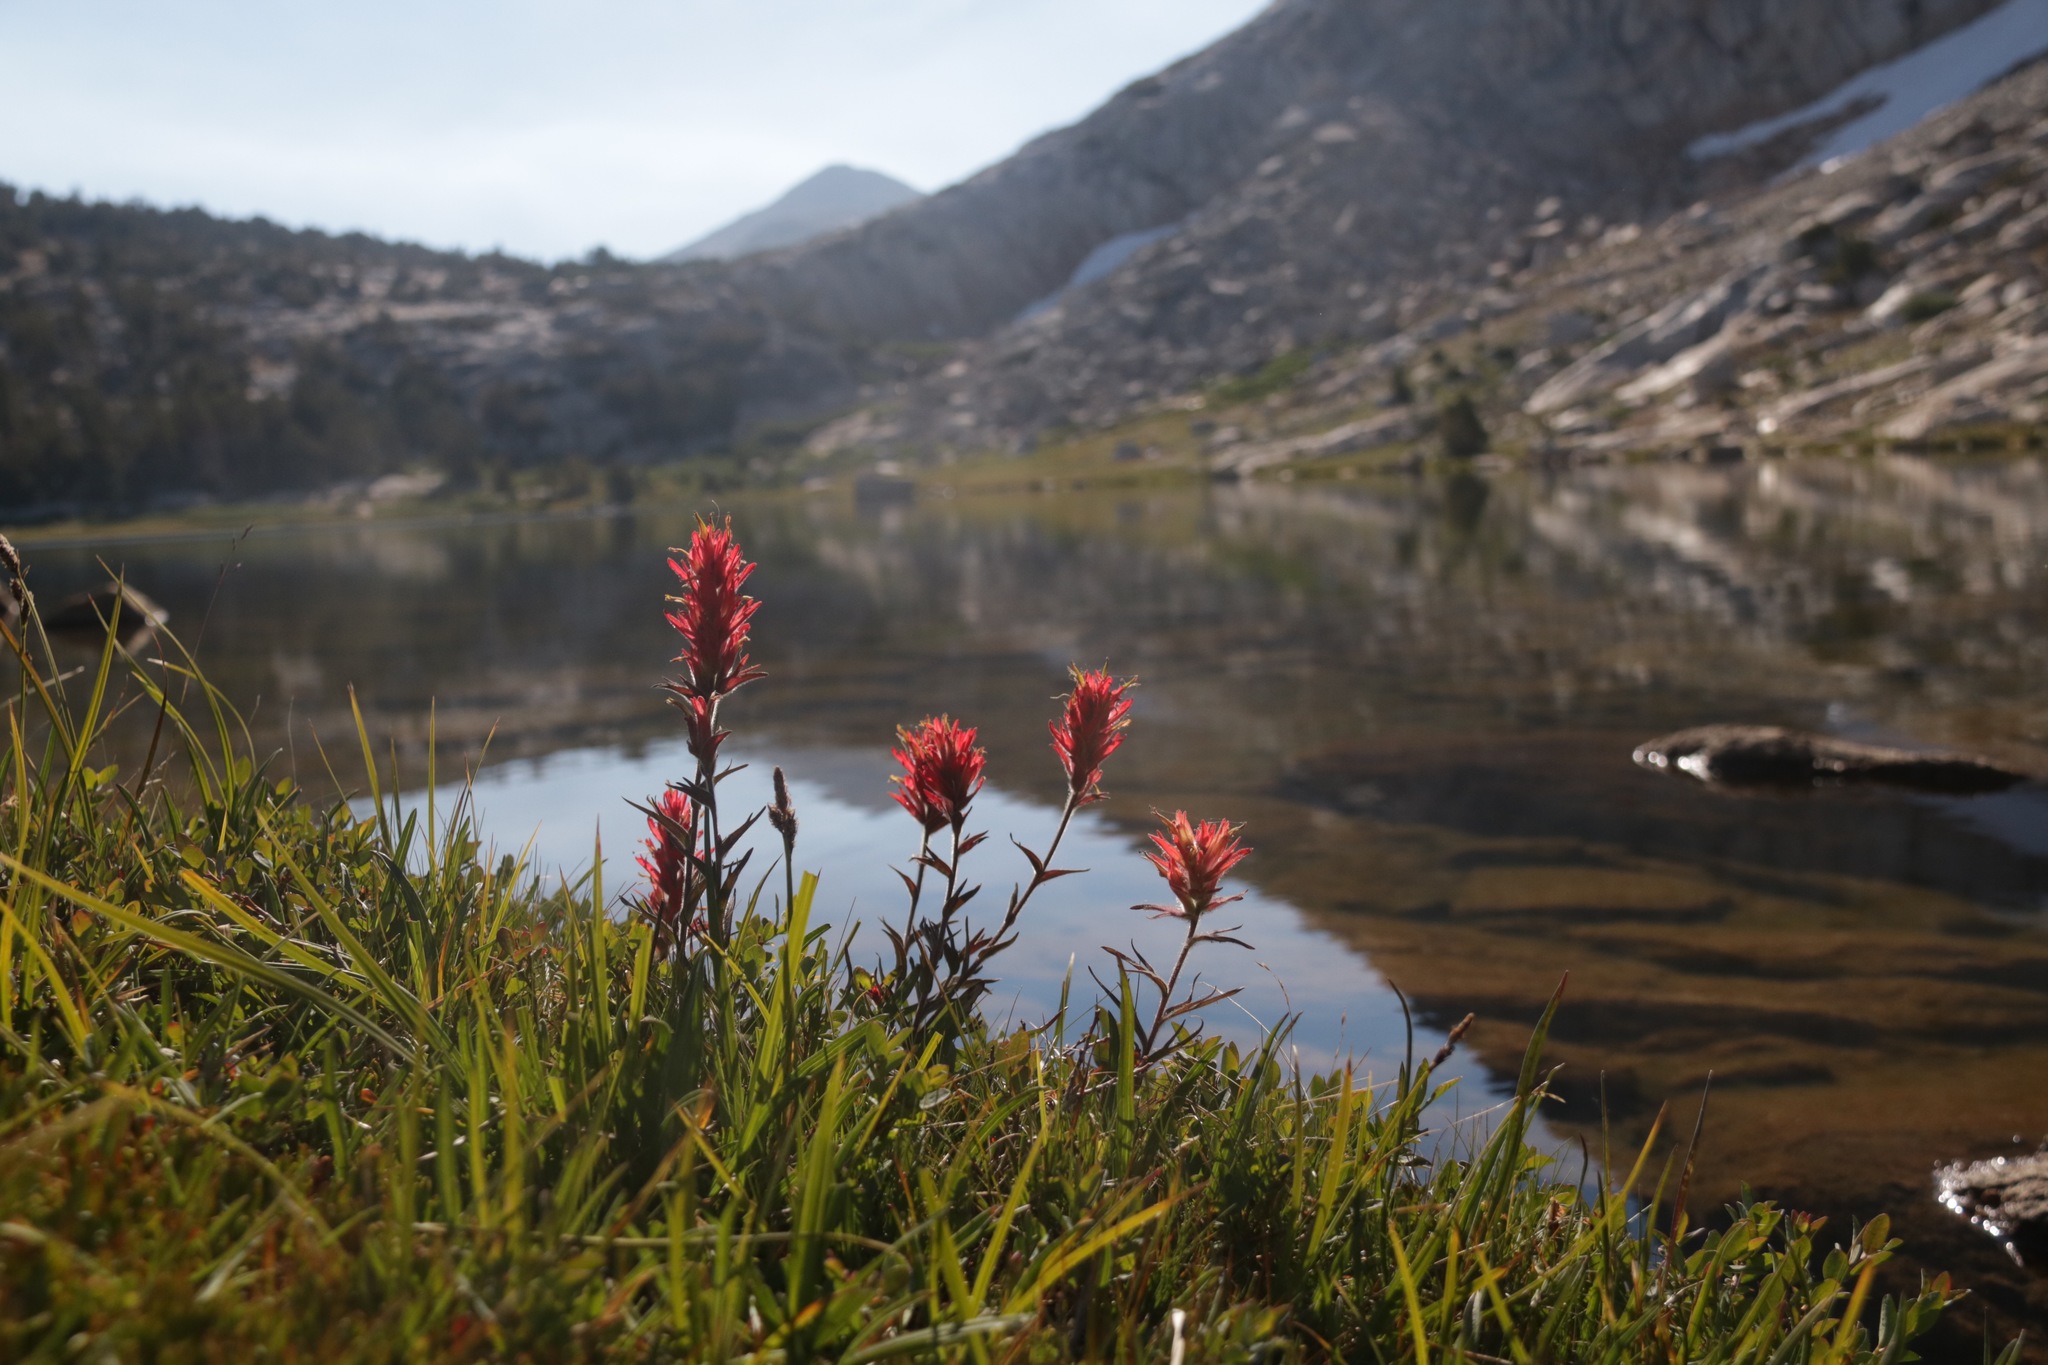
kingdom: Plantae
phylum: Tracheophyta
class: Magnoliopsida
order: Lamiales
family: Orobanchaceae
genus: Castilleja
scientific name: Castilleja miniata
